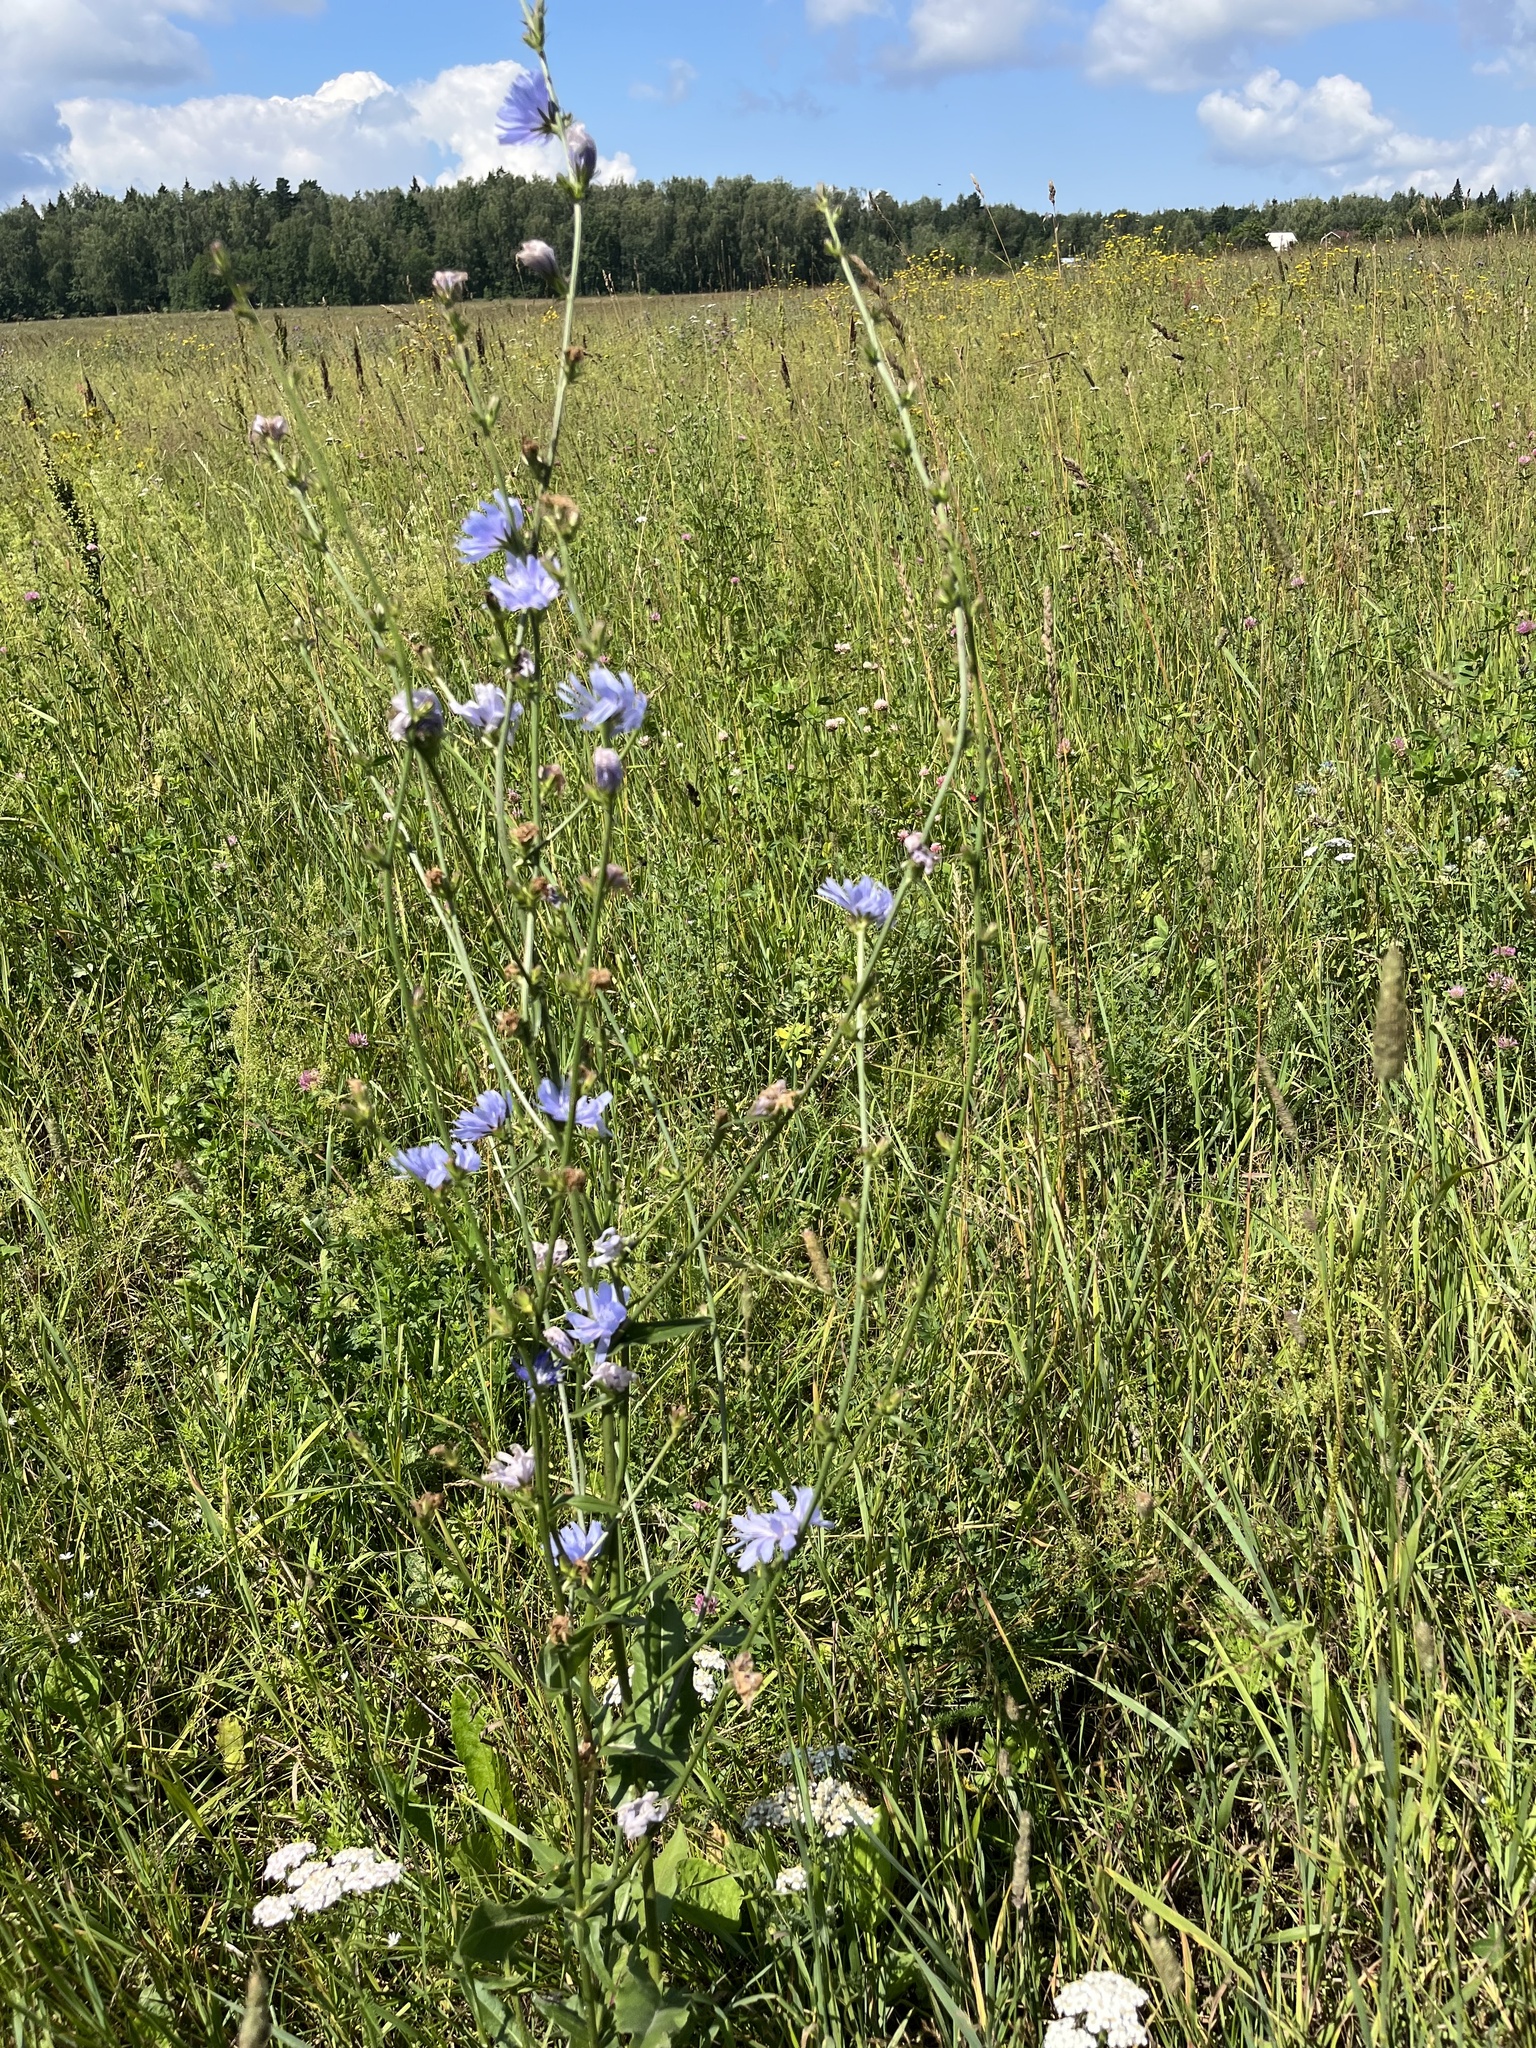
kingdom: Plantae
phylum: Tracheophyta
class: Magnoliopsida
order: Asterales
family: Asteraceae
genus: Cichorium
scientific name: Cichorium intybus
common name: Chicory
